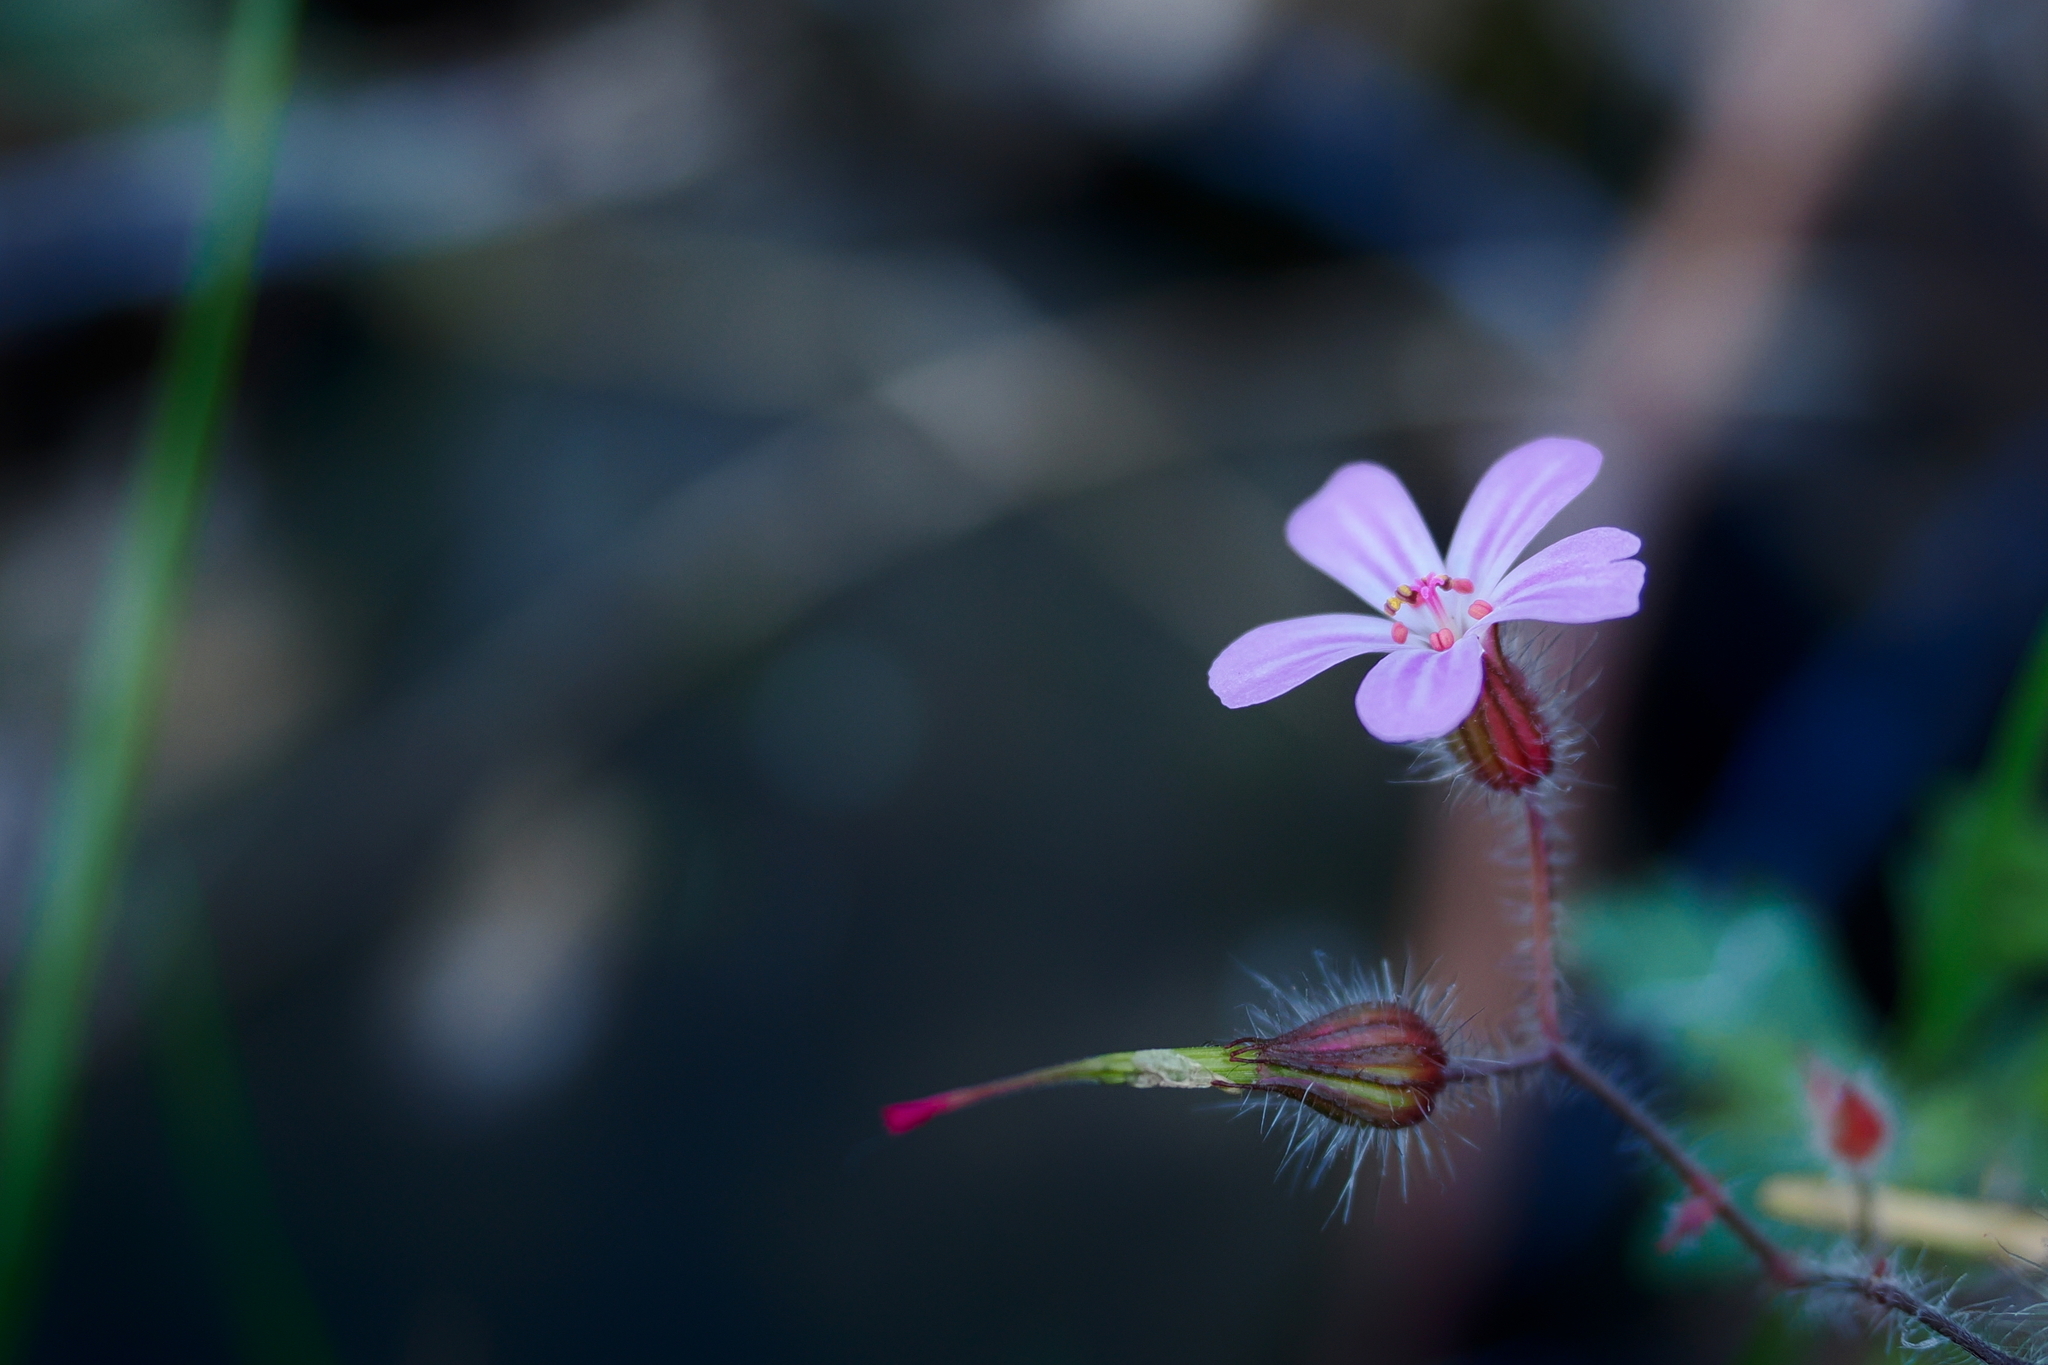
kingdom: Plantae
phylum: Tracheophyta
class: Magnoliopsida
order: Geraniales
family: Geraniaceae
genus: Geranium
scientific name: Geranium robertianum
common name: Herb-robert
